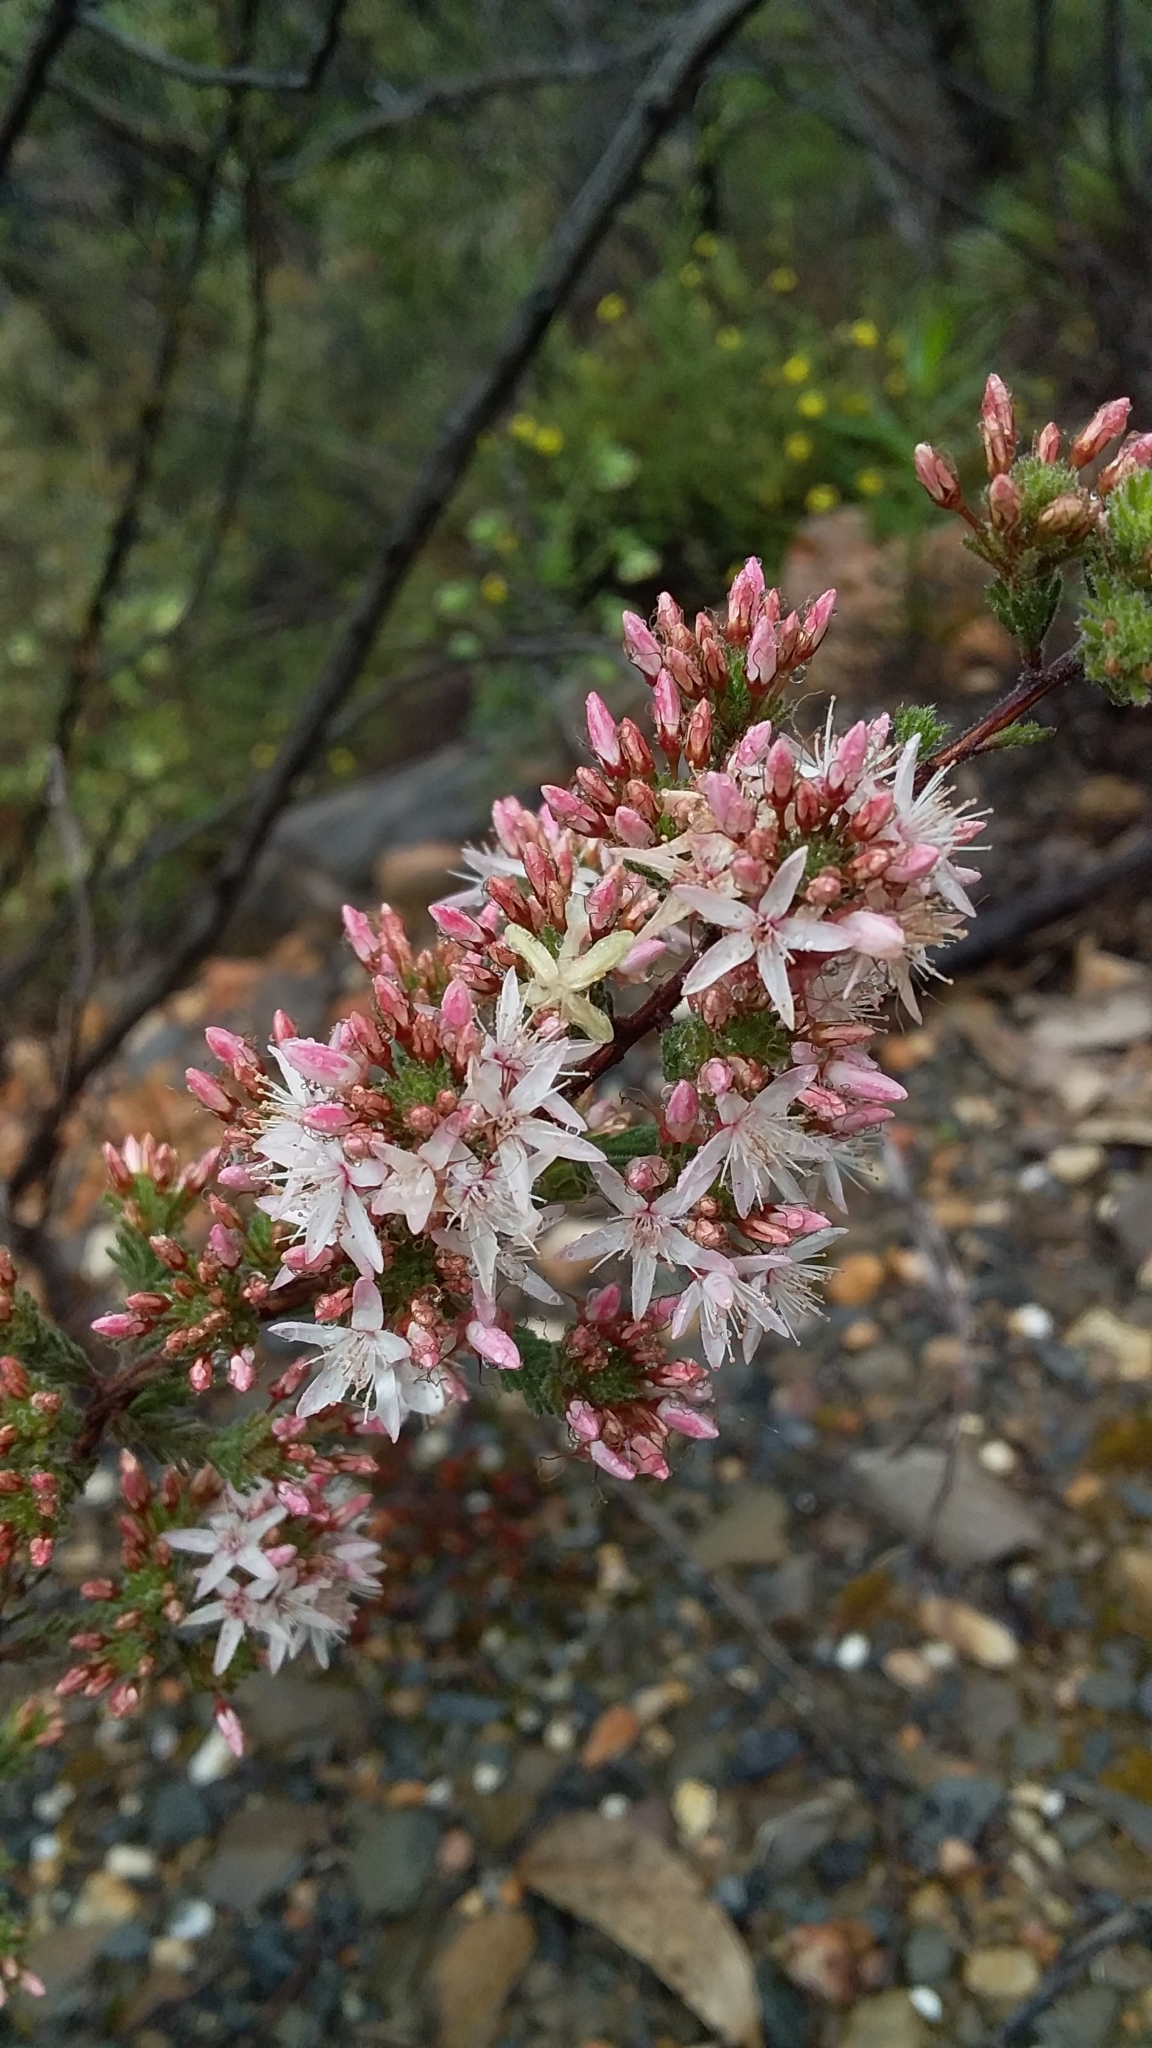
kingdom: Plantae
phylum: Tracheophyta
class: Magnoliopsida
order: Myrtales
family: Myrtaceae
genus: Calytrix
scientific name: Calytrix tetragona
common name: Common fringe myrtle
